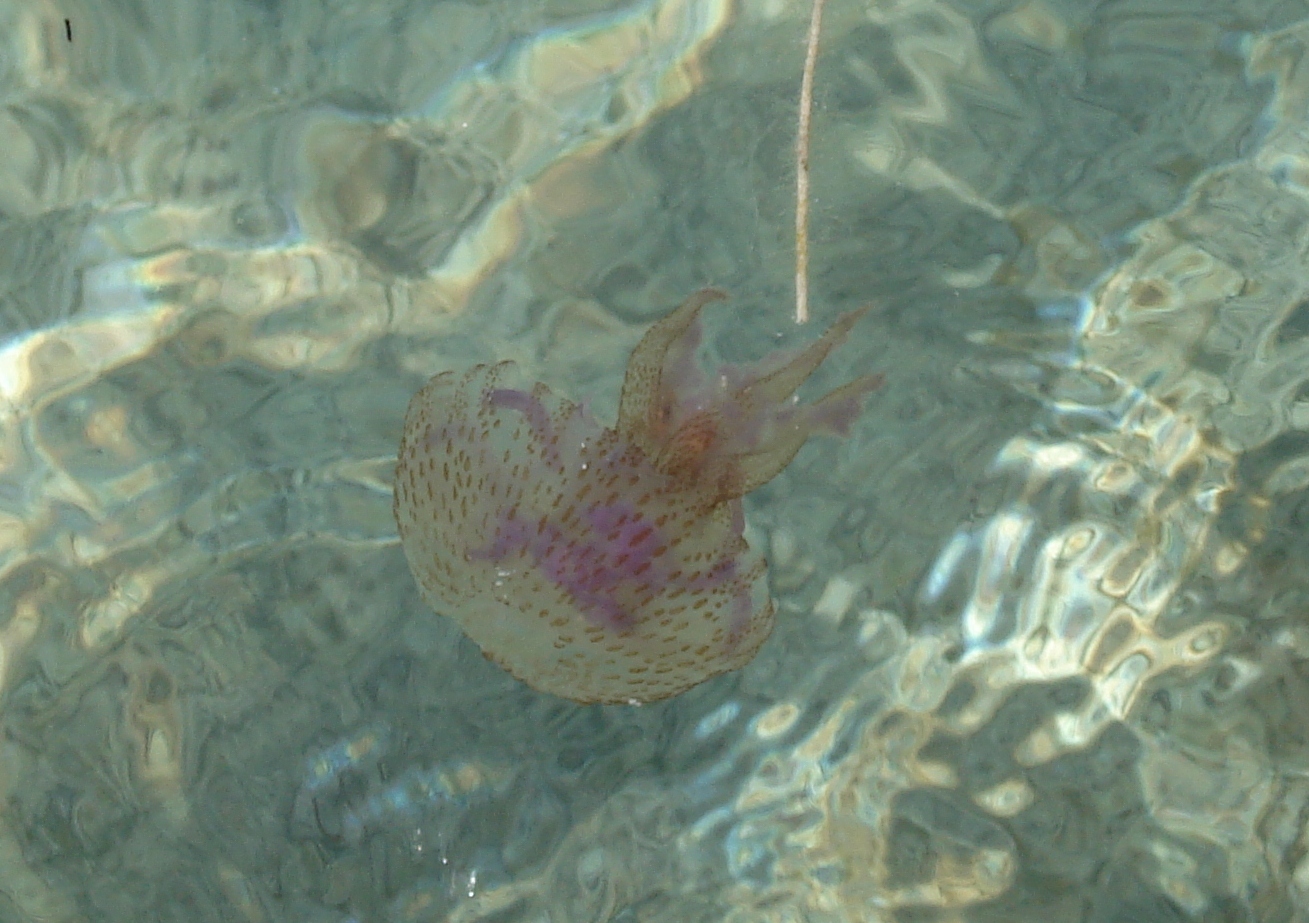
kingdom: Animalia
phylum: Cnidaria
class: Scyphozoa
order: Semaeostomeae
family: Pelagiidae
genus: Pelagia
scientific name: Pelagia noctiluca
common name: Mauve stinger
